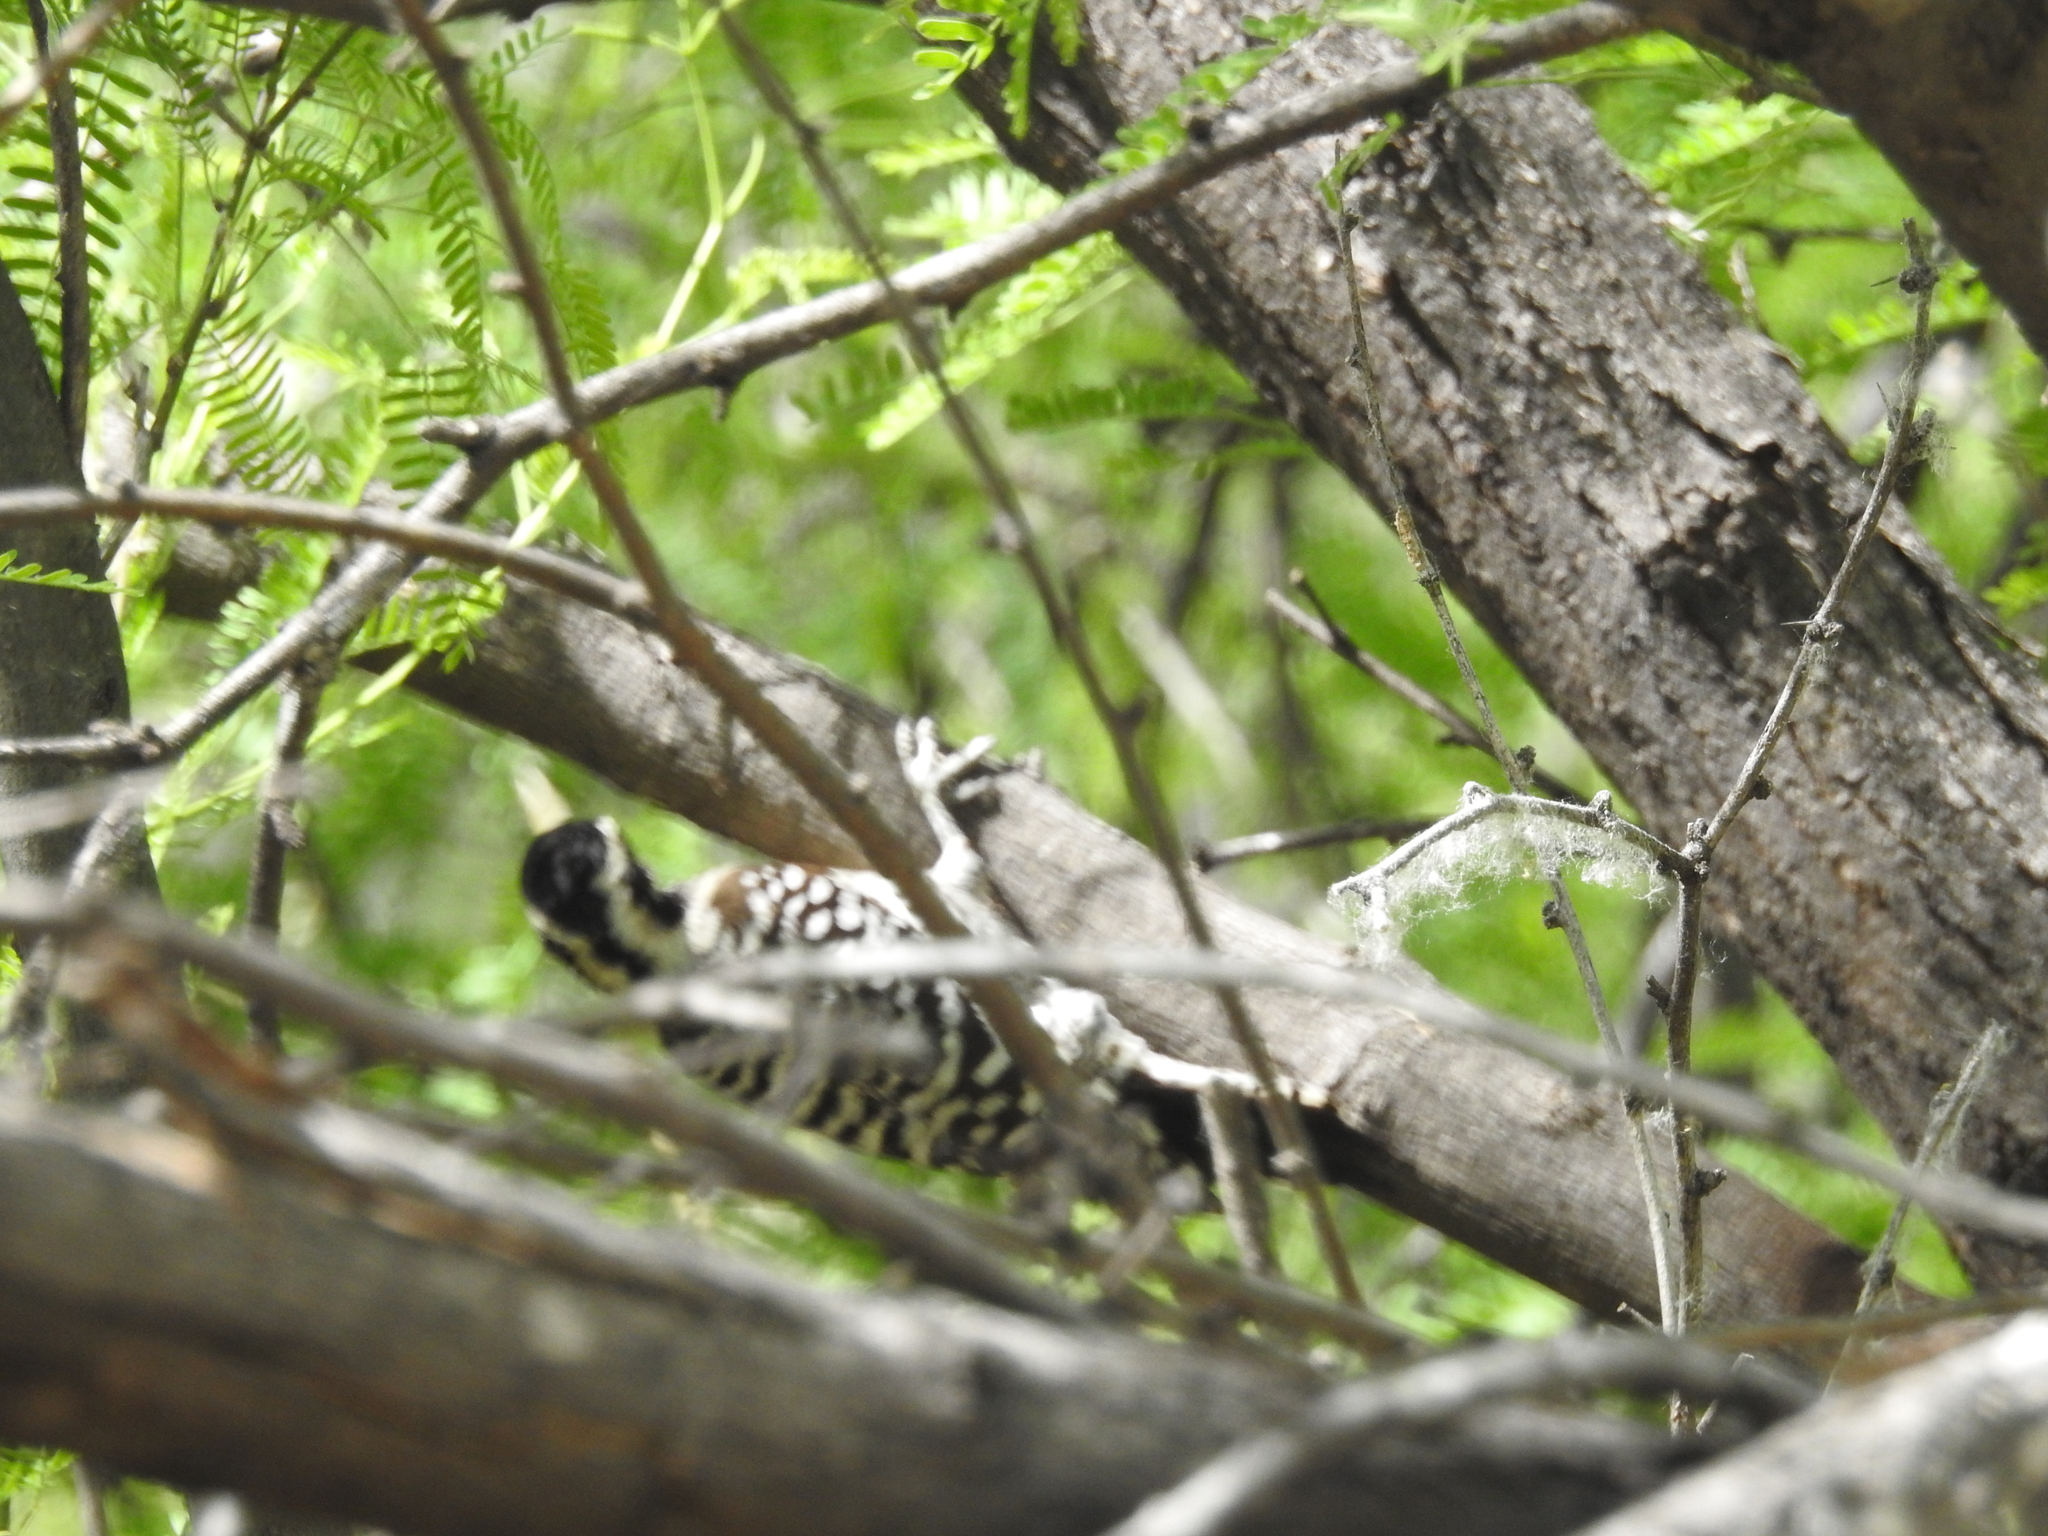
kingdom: Animalia
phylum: Chordata
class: Aves
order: Piciformes
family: Picidae
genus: Dryobates
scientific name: Dryobates scalaris
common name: Ladder-backed woodpecker
